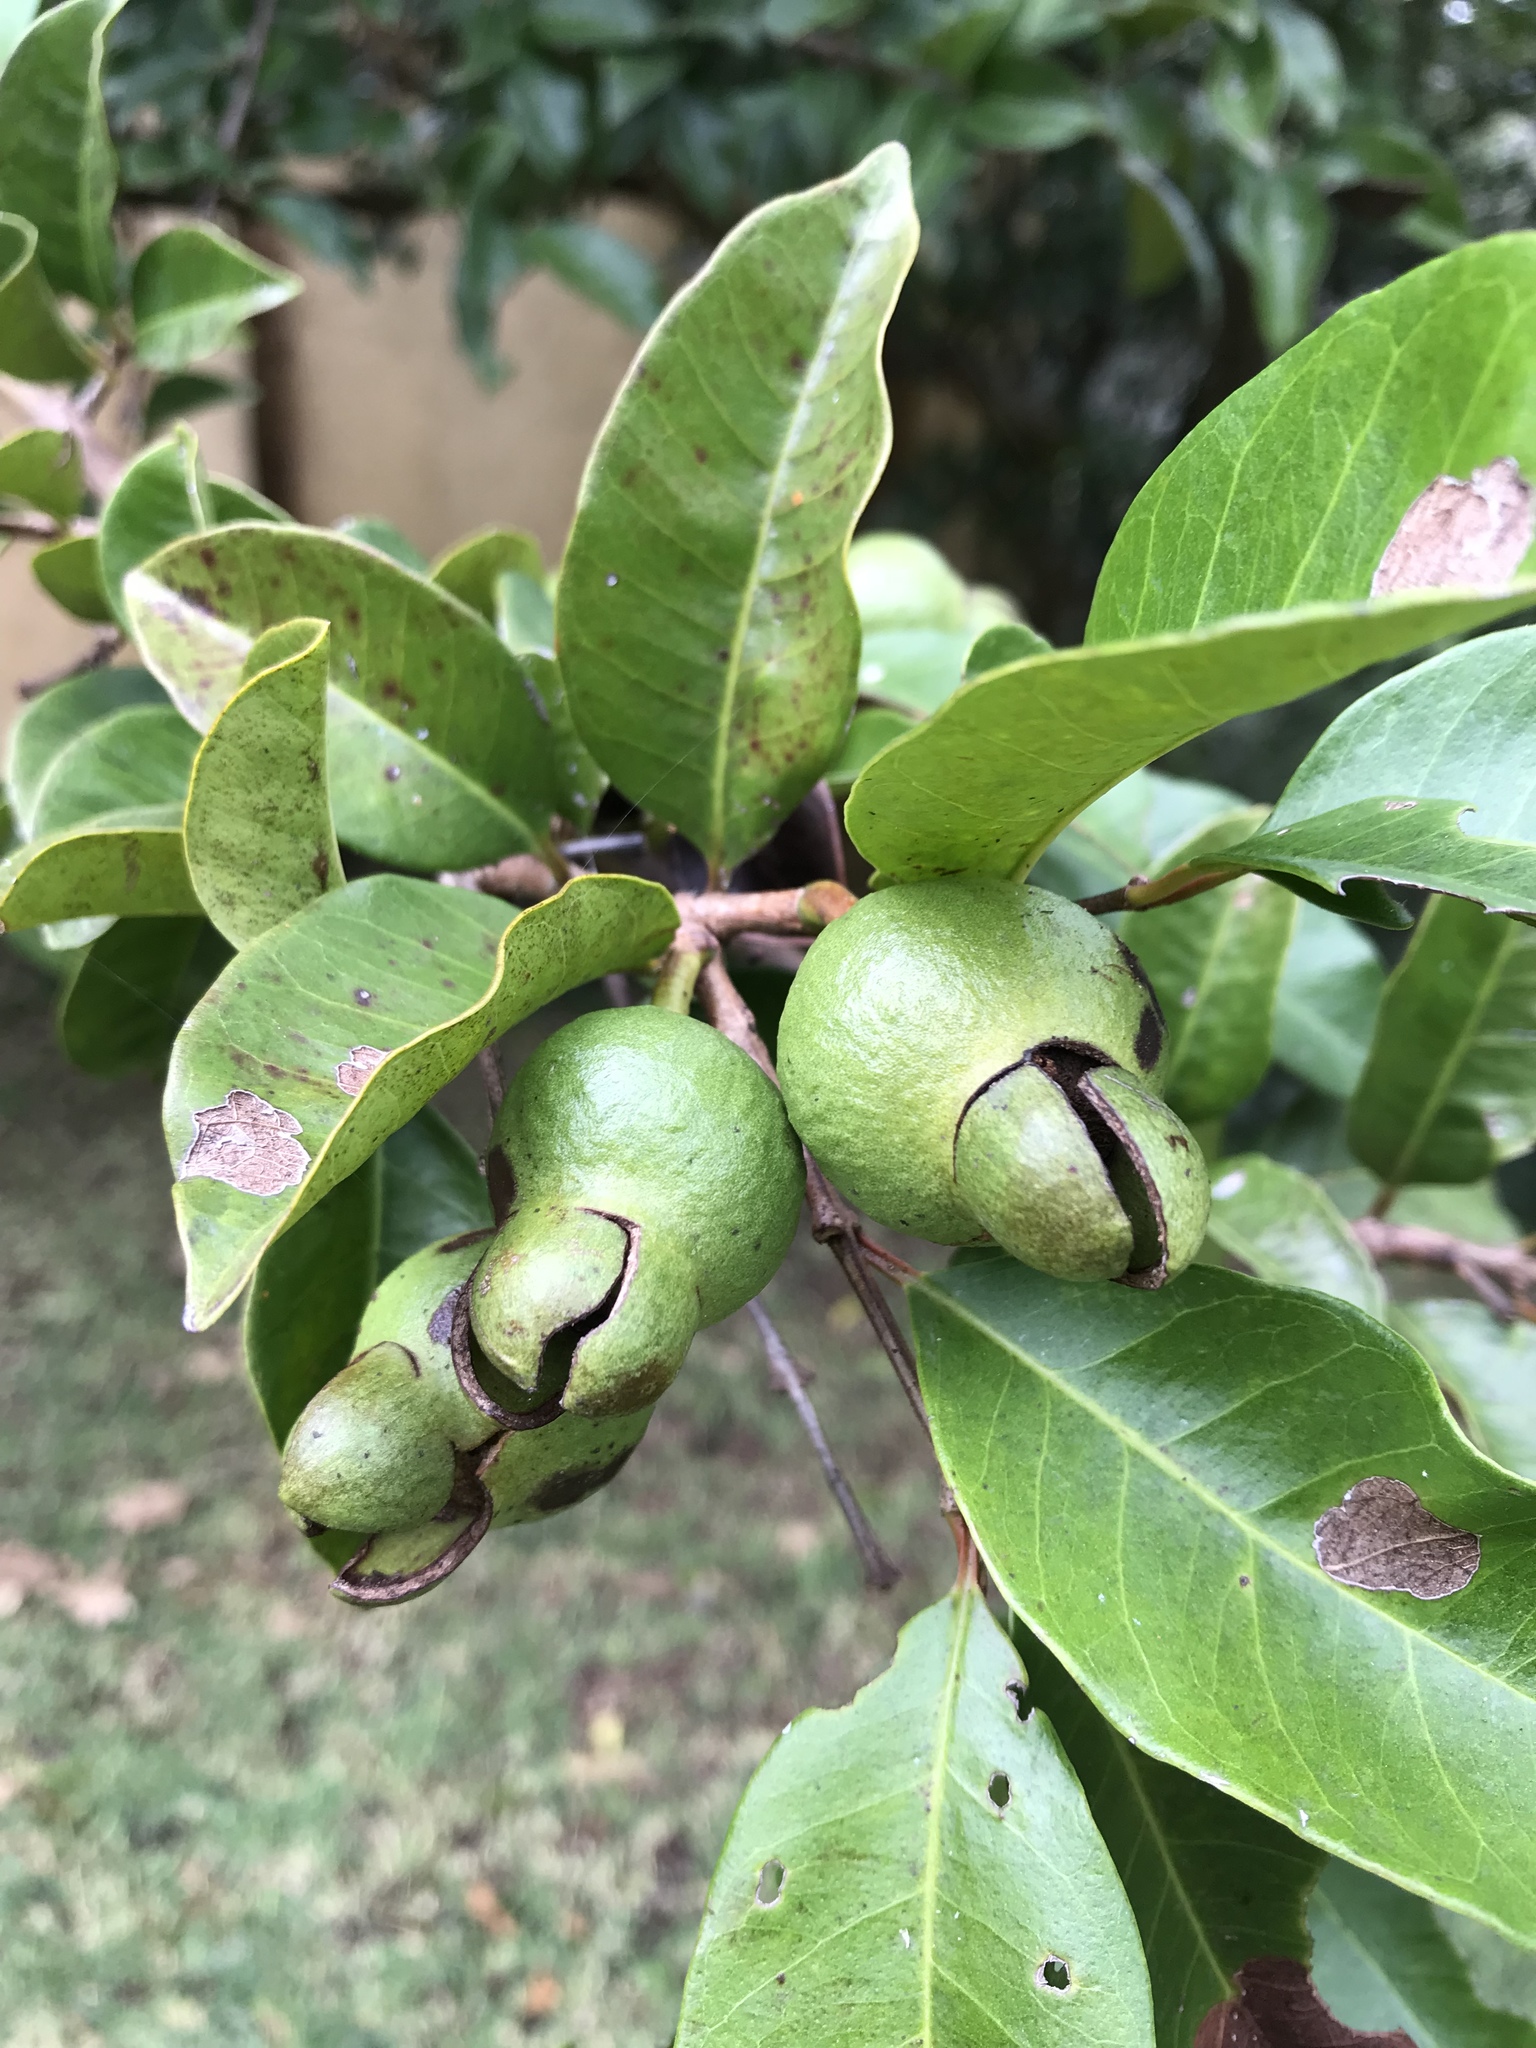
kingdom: Plantae
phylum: Tracheophyta
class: Magnoliopsida
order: Myrtales
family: Myrtaceae
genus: Psidium
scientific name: Psidium friedrichsthalianum
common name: Costa rican guava
